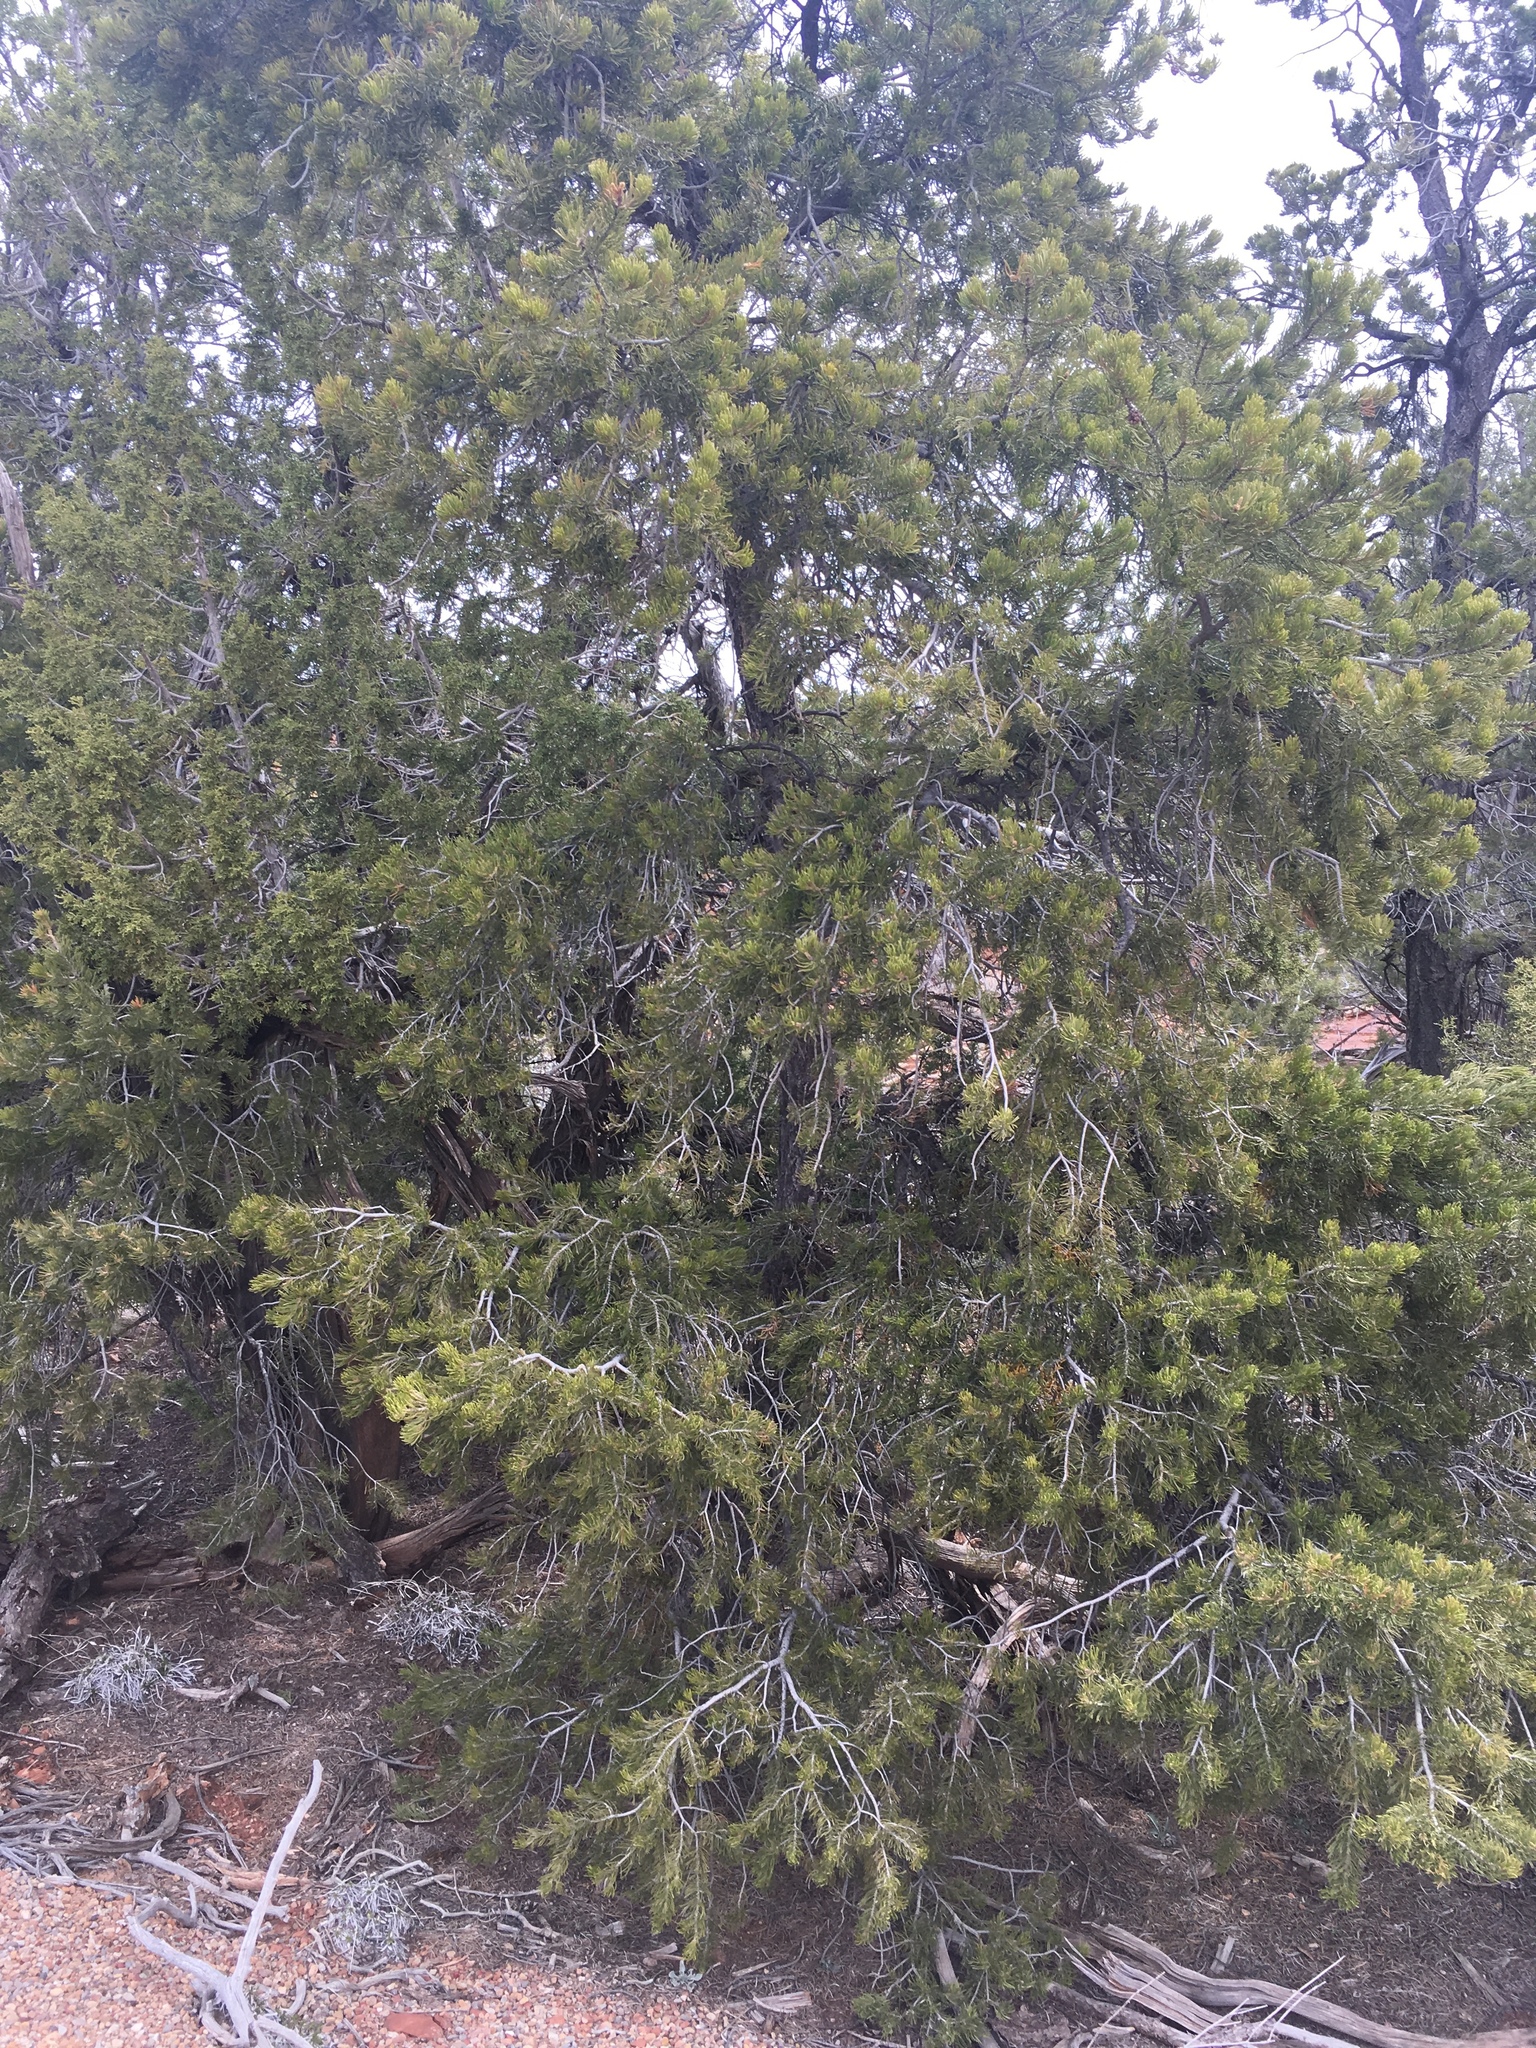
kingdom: Plantae
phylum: Tracheophyta
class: Pinopsida
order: Pinales
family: Pinaceae
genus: Pinus
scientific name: Pinus edulis
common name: Colorado pinyon
